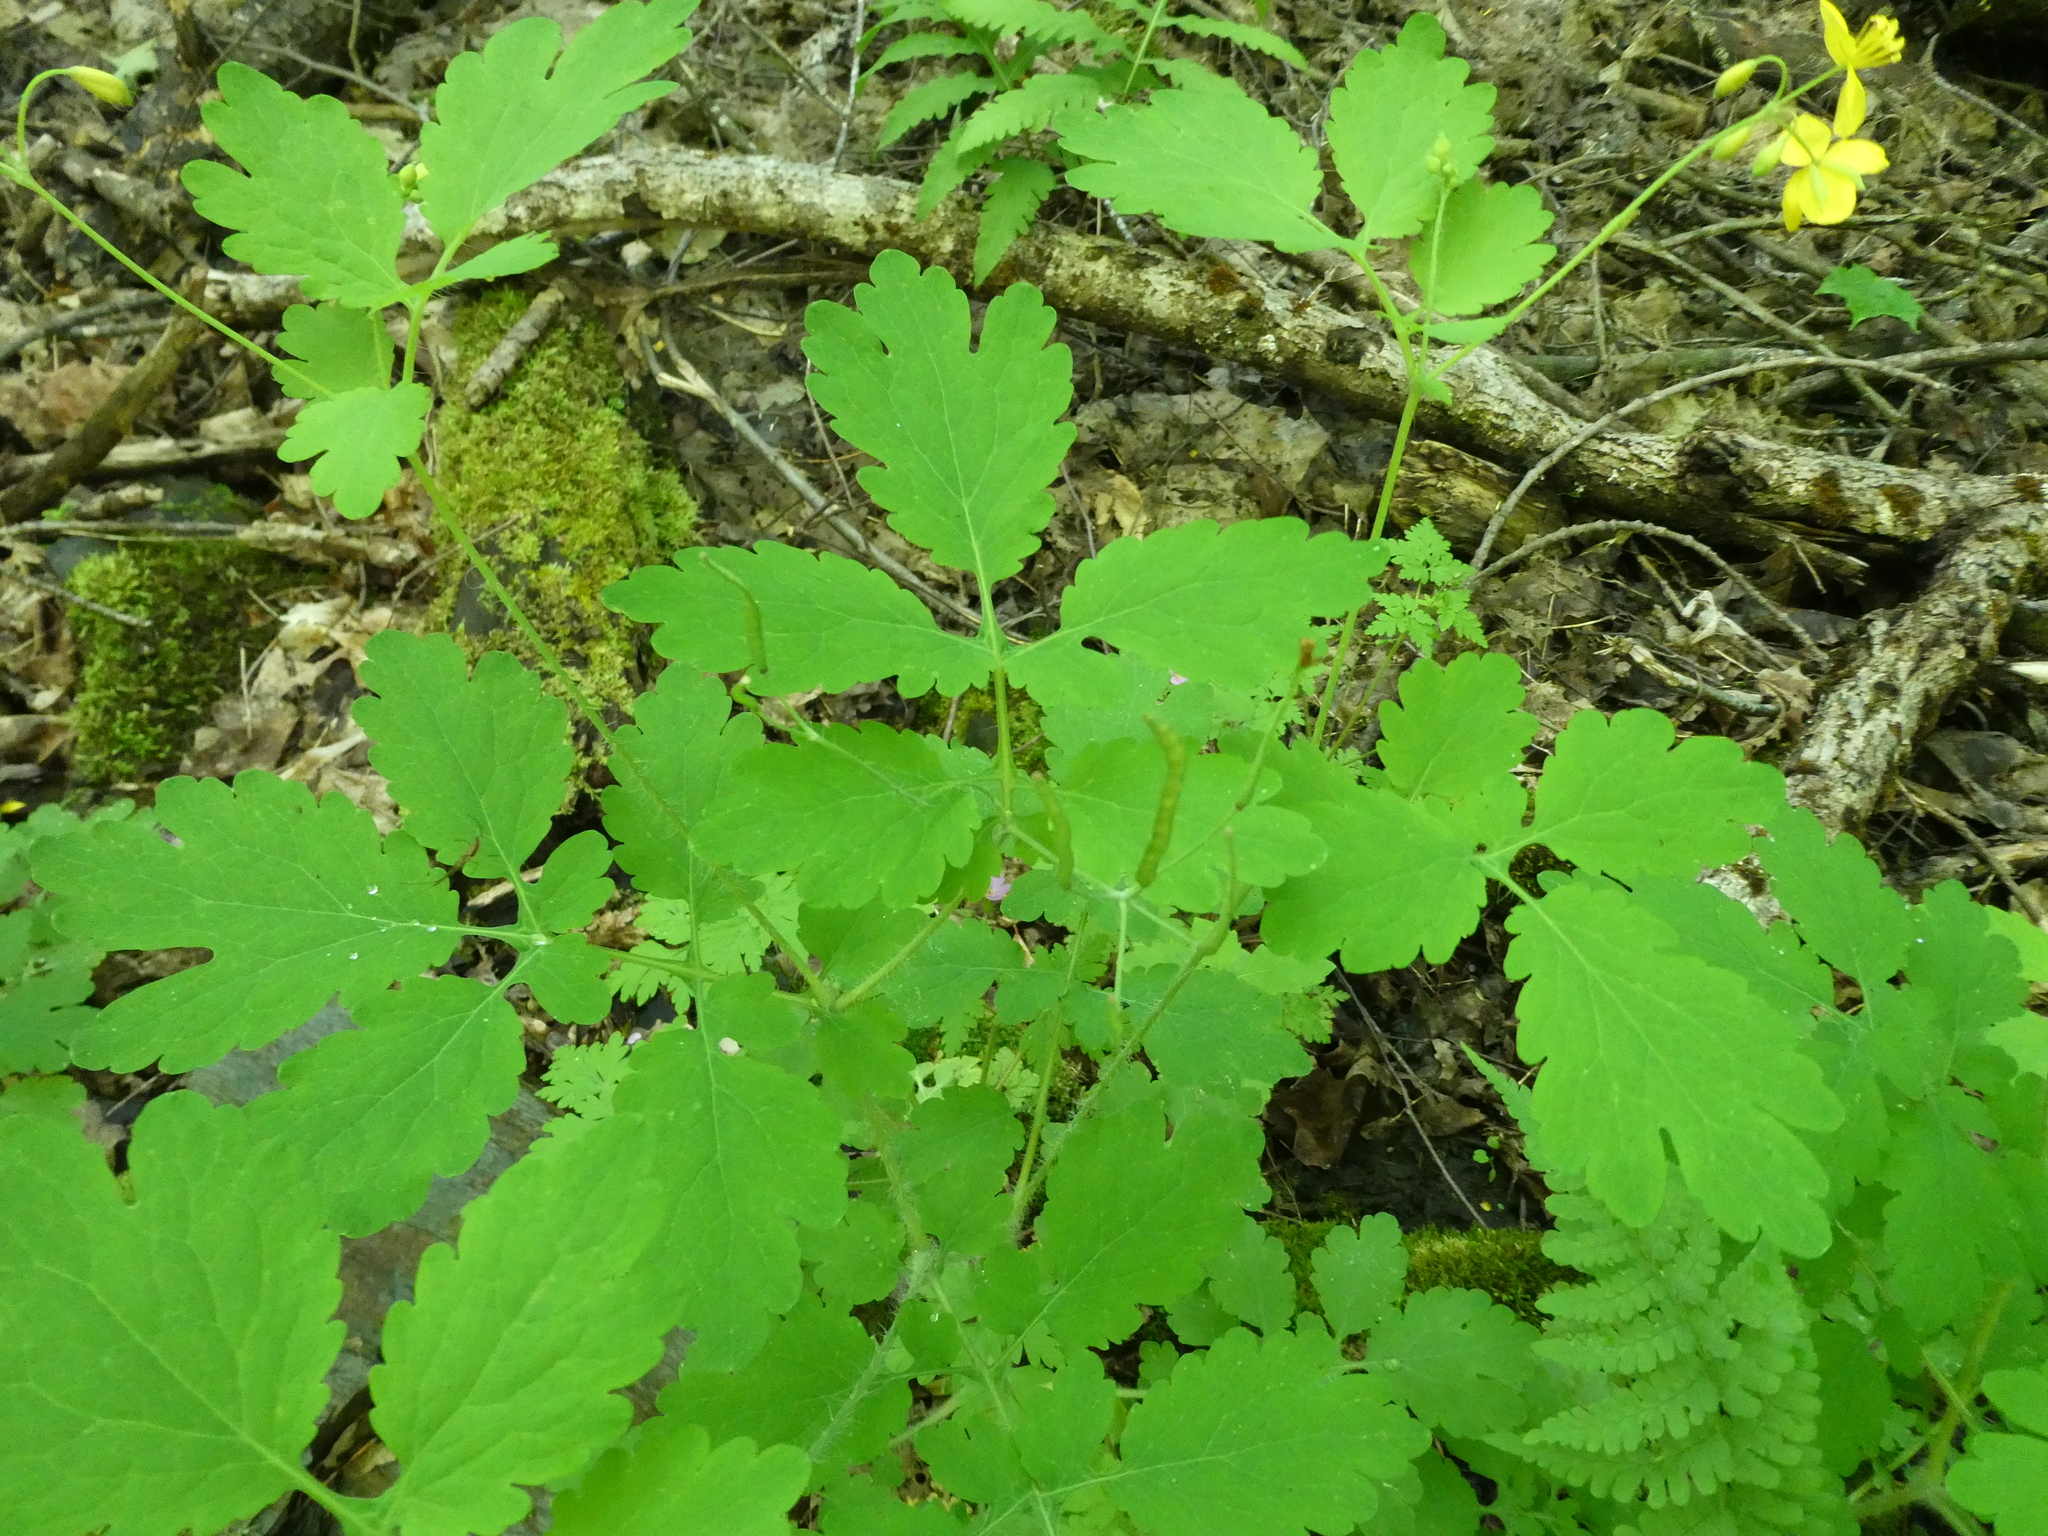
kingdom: Plantae
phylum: Tracheophyta
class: Magnoliopsida
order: Ranunculales
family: Papaveraceae
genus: Chelidonium
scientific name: Chelidonium majus
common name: Greater celandine
